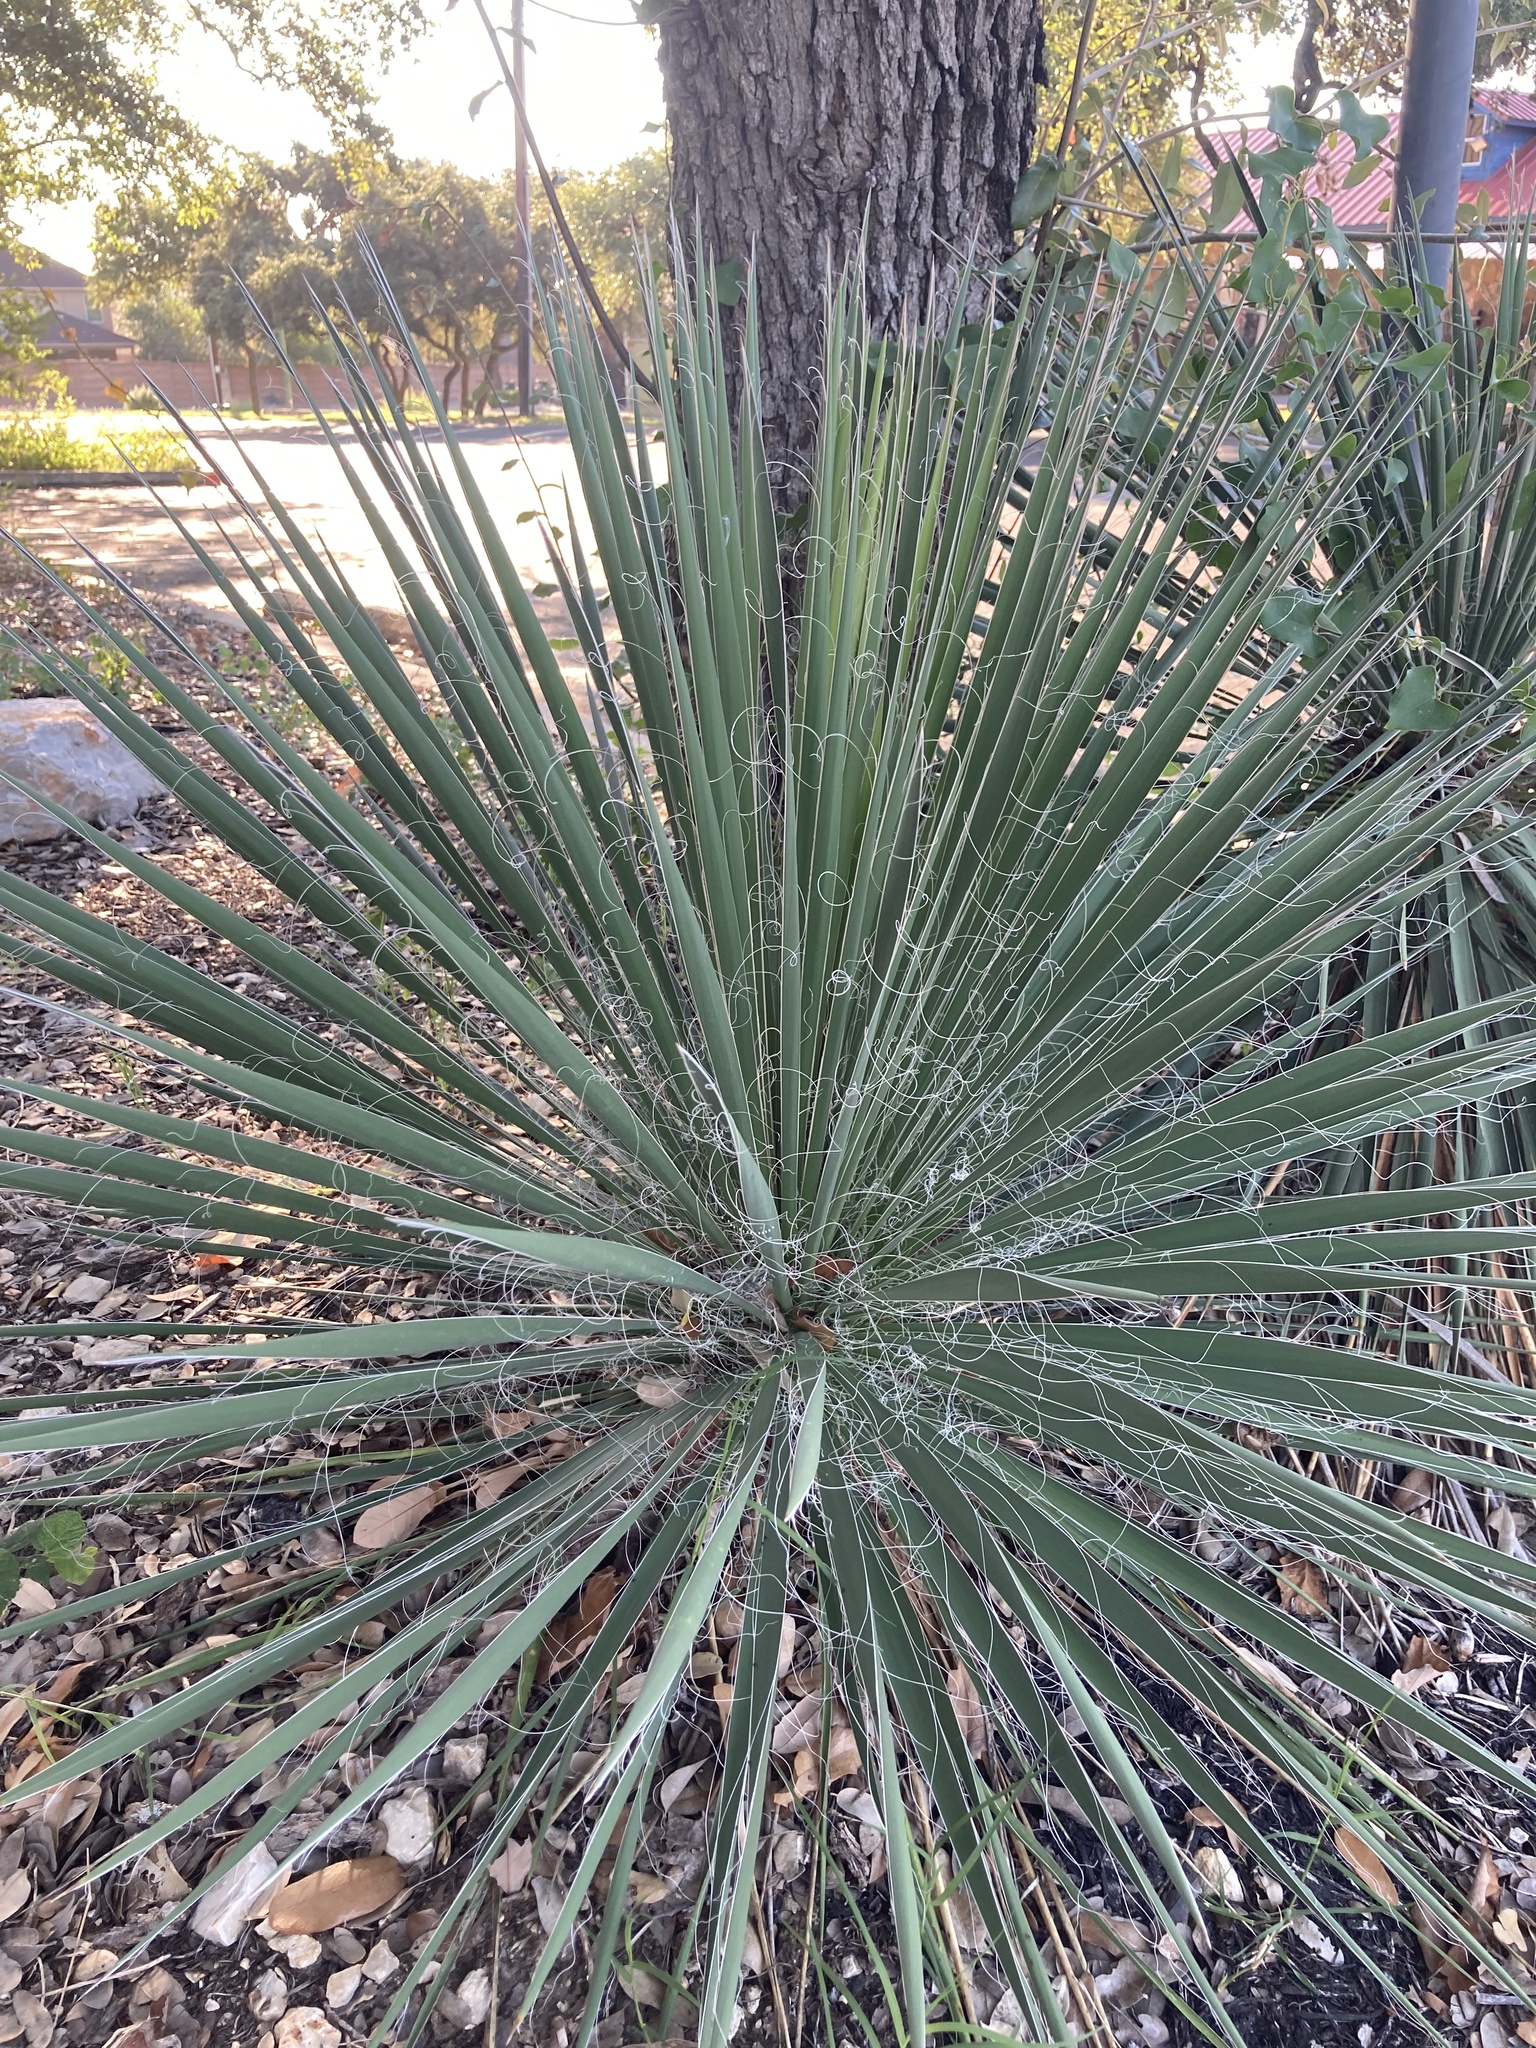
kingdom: Plantae
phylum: Tracheophyta
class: Liliopsida
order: Asparagales
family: Asparagaceae
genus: Yucca
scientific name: Yucca constricta
